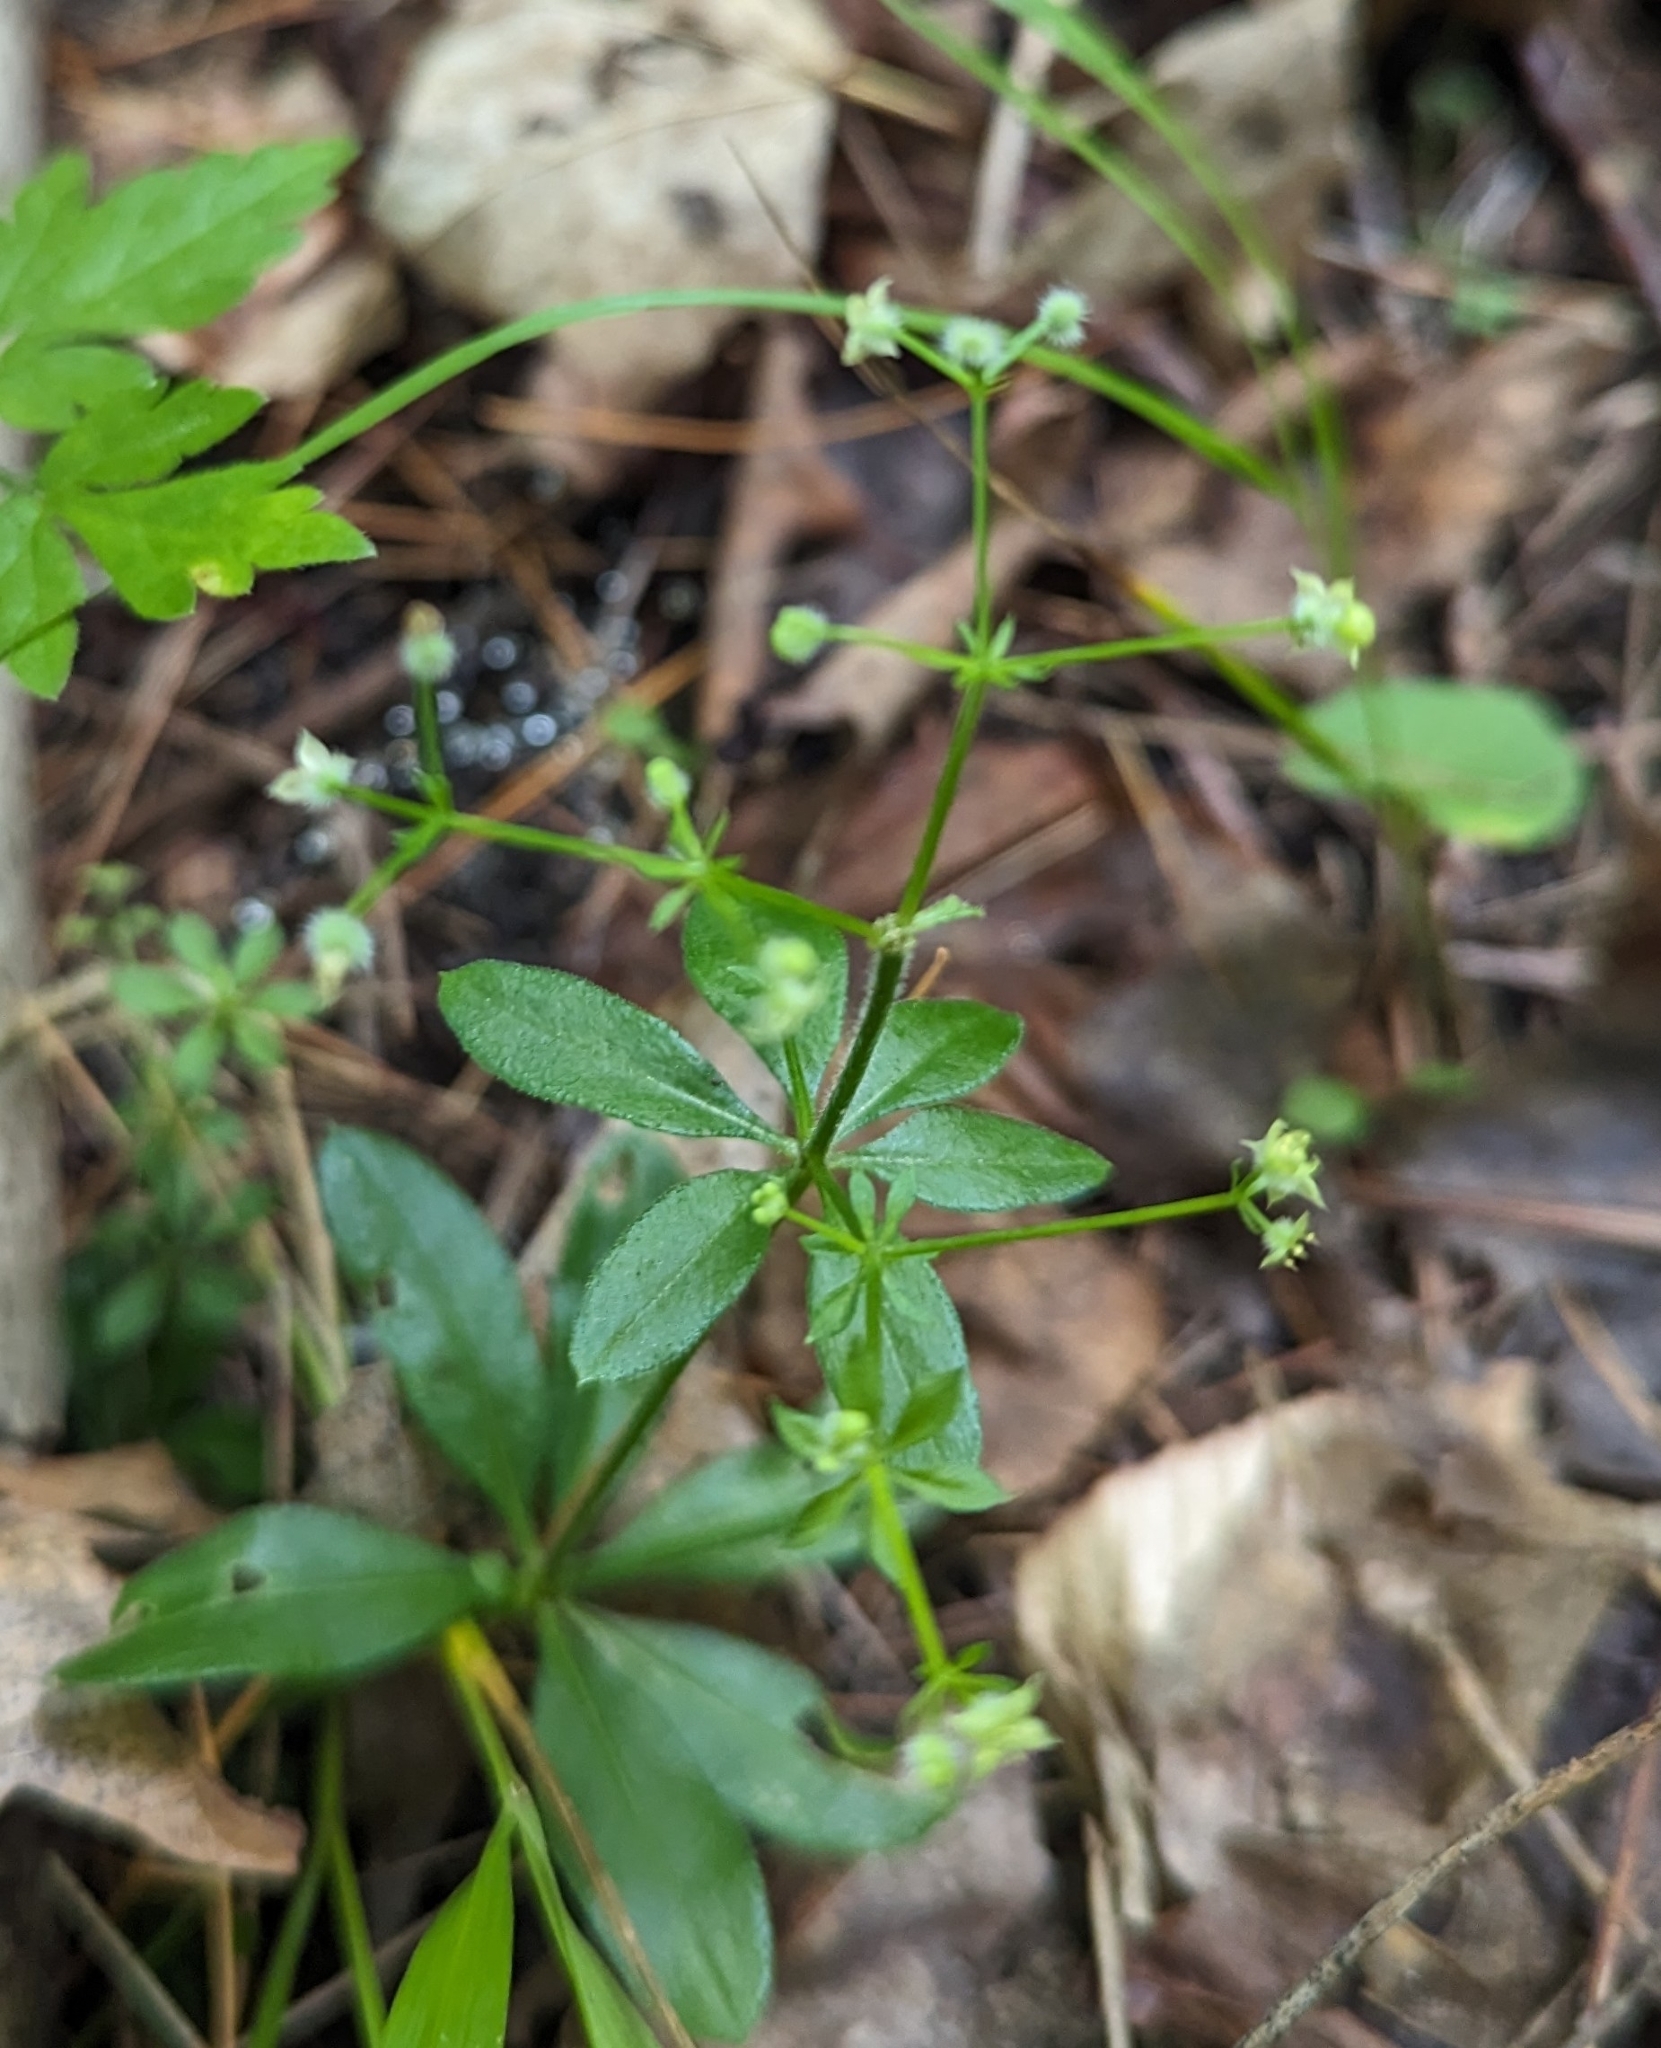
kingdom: Plantae
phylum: Tracheophyta
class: Magnoliopsida
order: Gentianales
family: Rubiaceae
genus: Galium
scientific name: Galium triflorum
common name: Fragrant bedstraw
